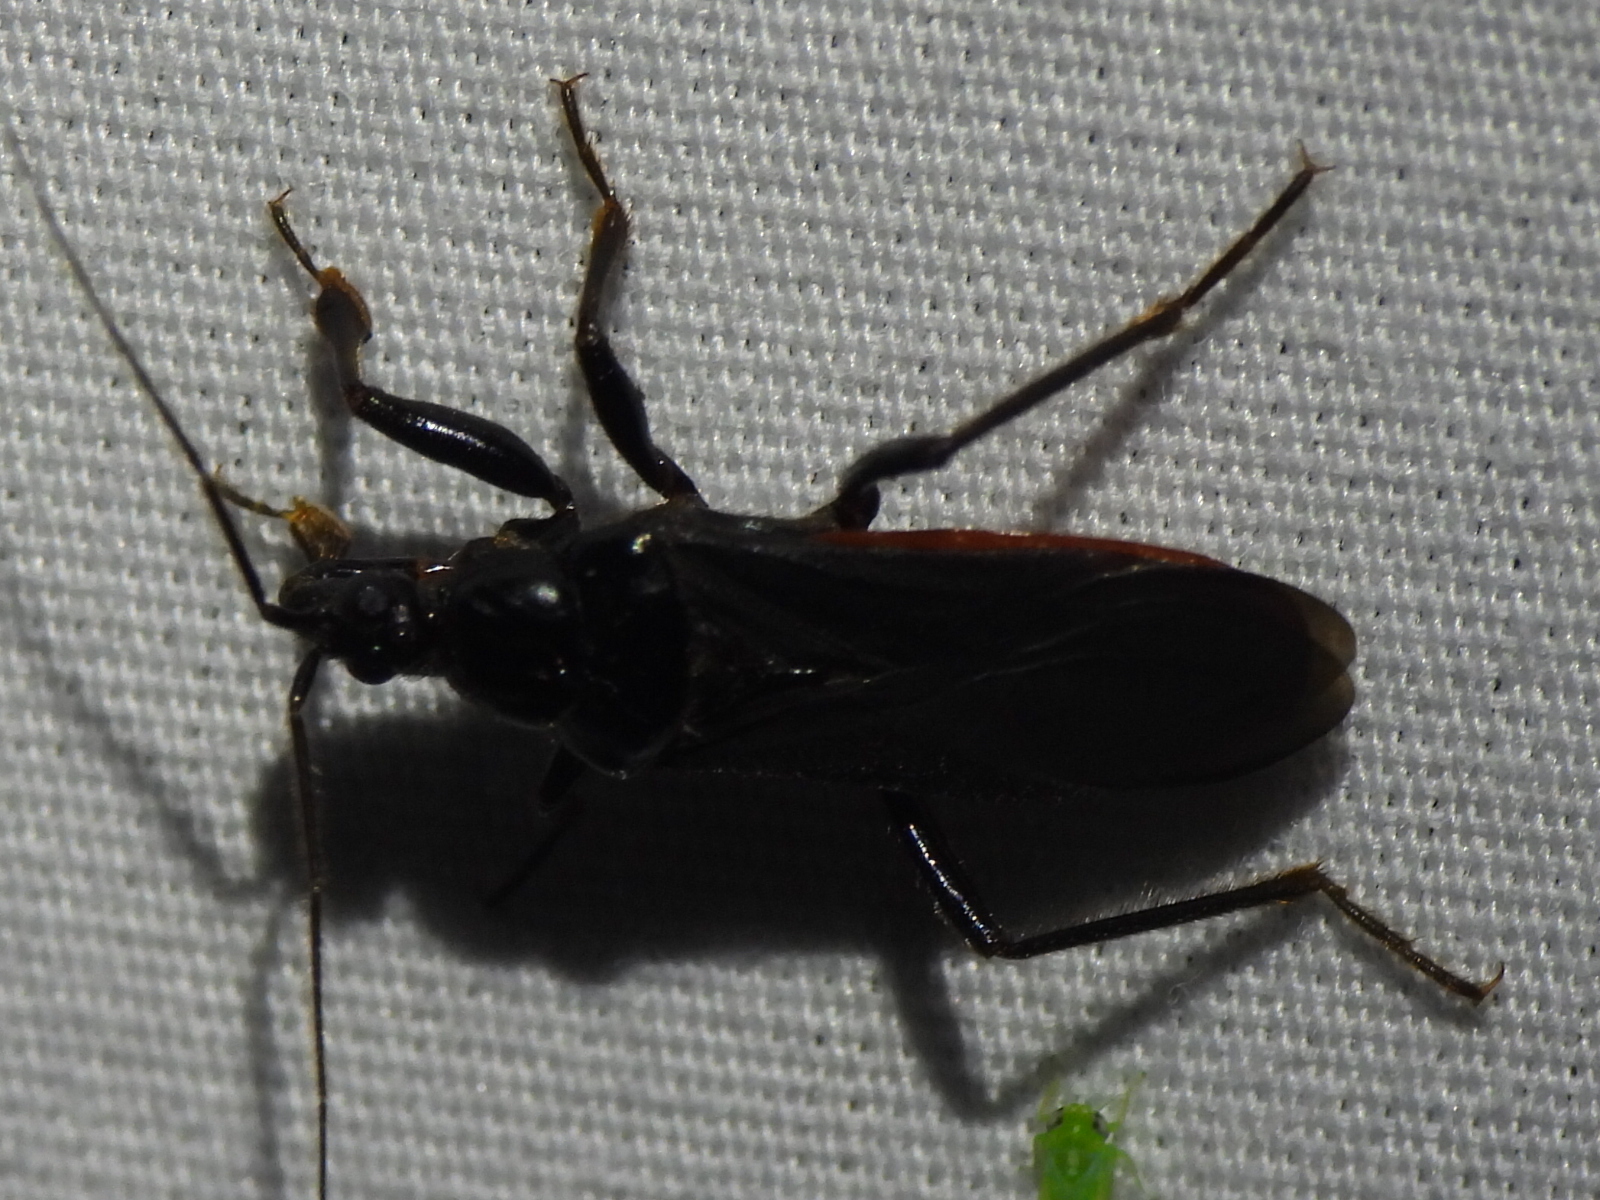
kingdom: Animalia
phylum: Arthropoda
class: Insecta
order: Hemiptera
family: Reduviidae
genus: Melanolestes
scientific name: Melanolestes picipes
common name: Assassin bug
